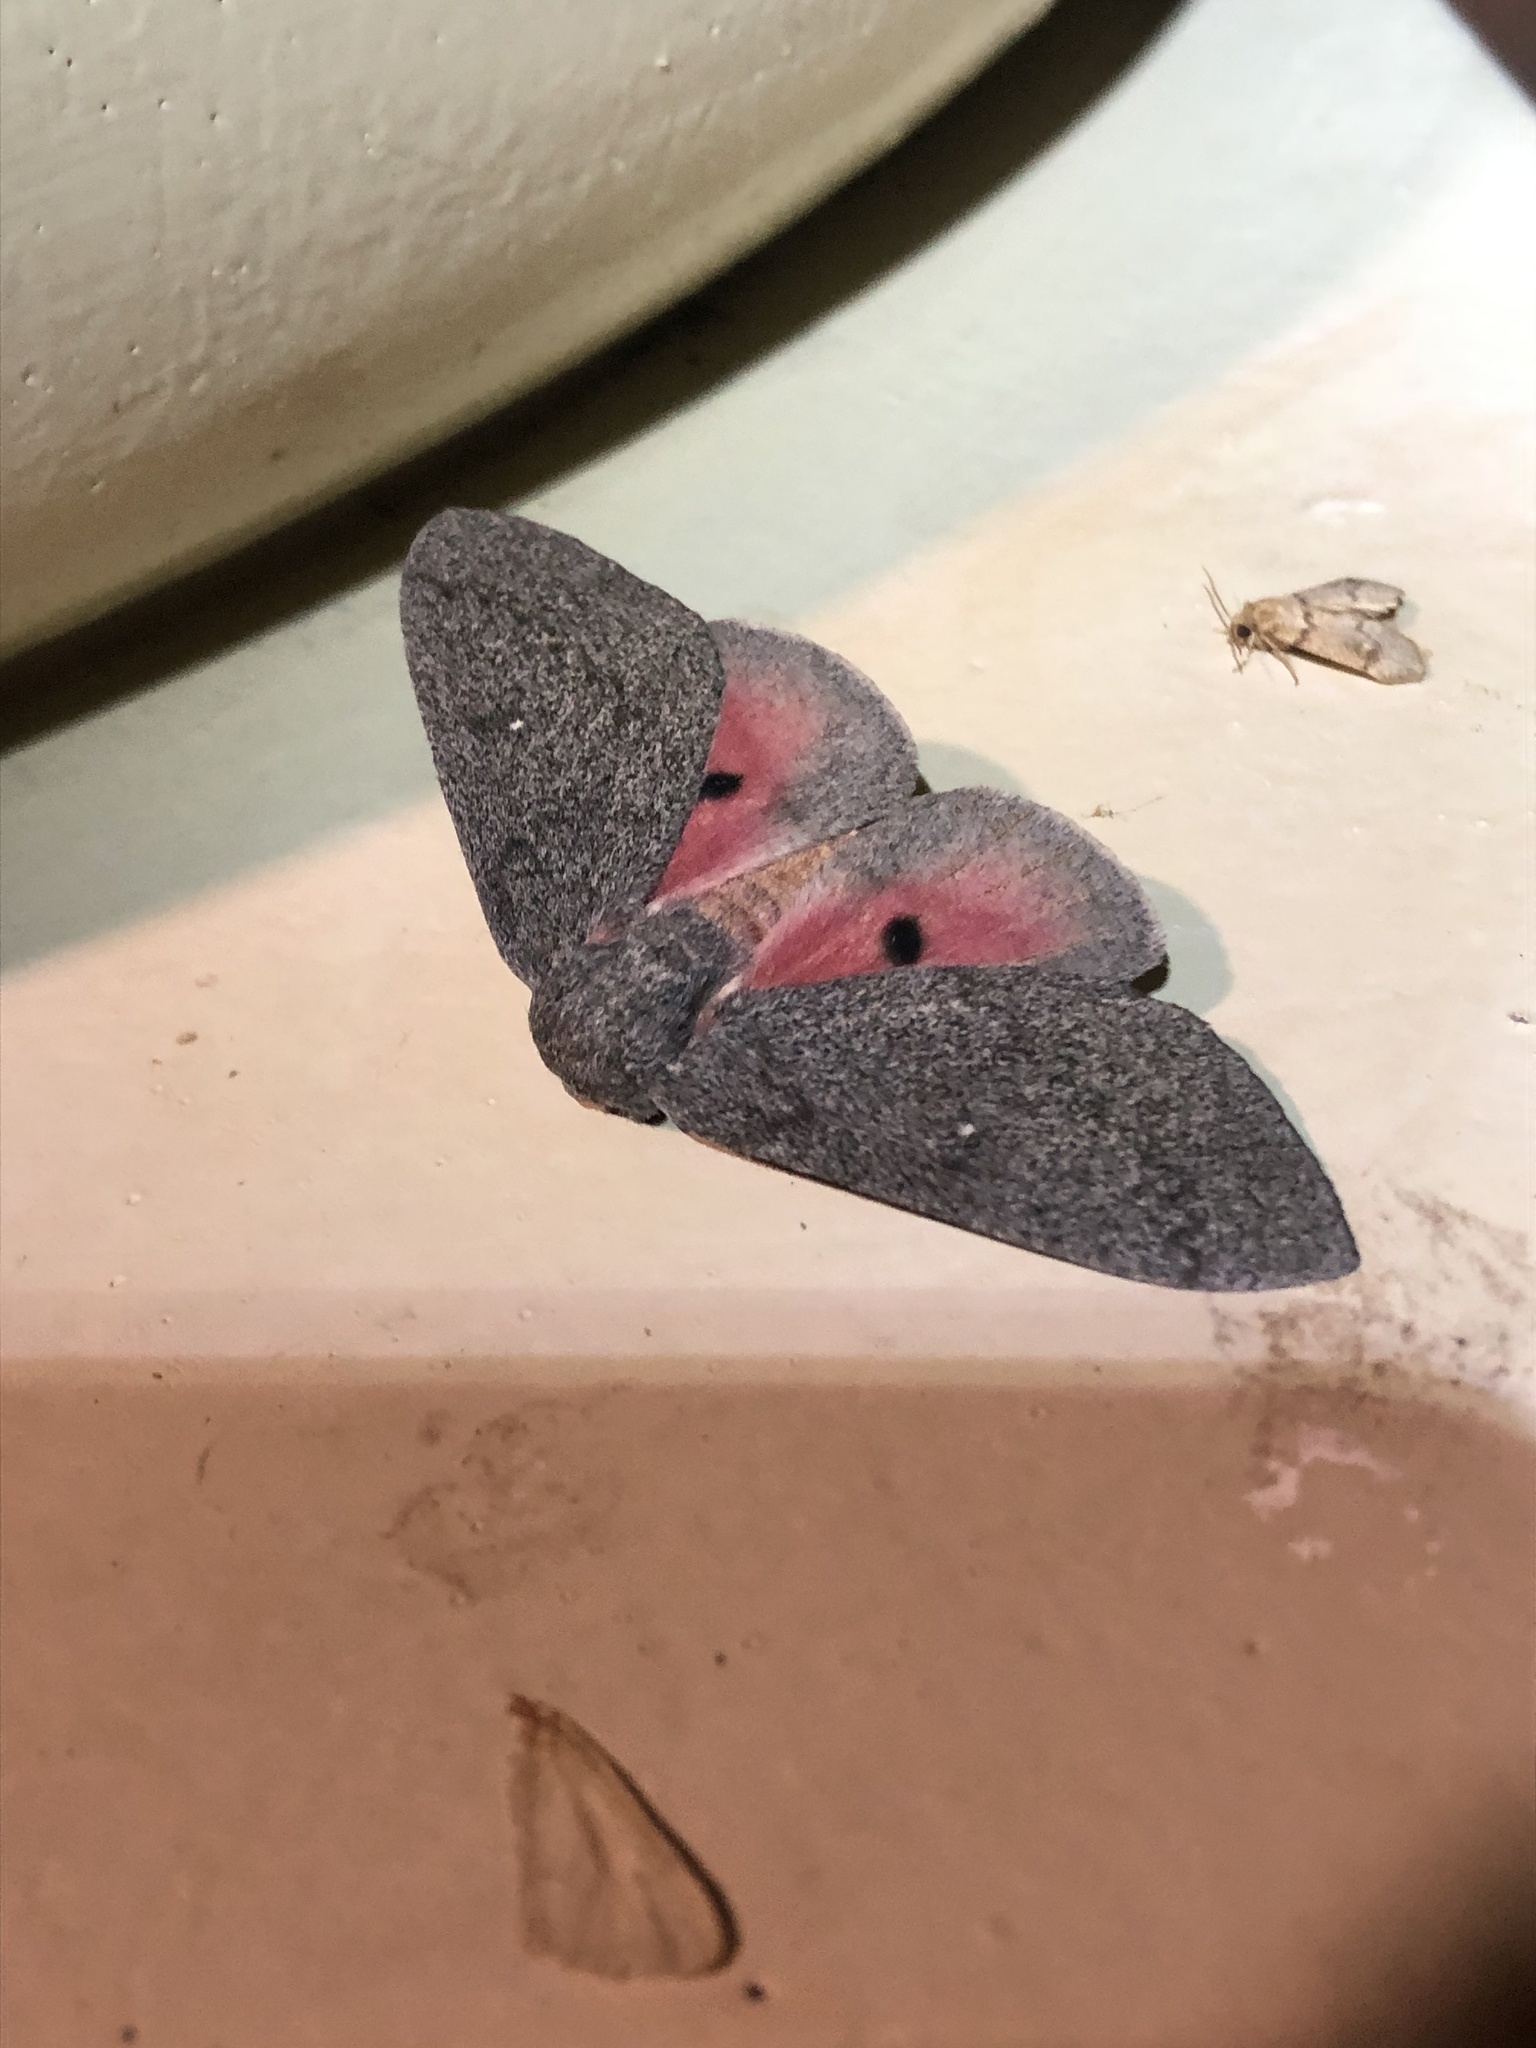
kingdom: Animalia
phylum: Arthropoda
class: Insecta
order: Lepidoptera
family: Saturniidae
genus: Syssphinx
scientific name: Syssphinx hubbardi
